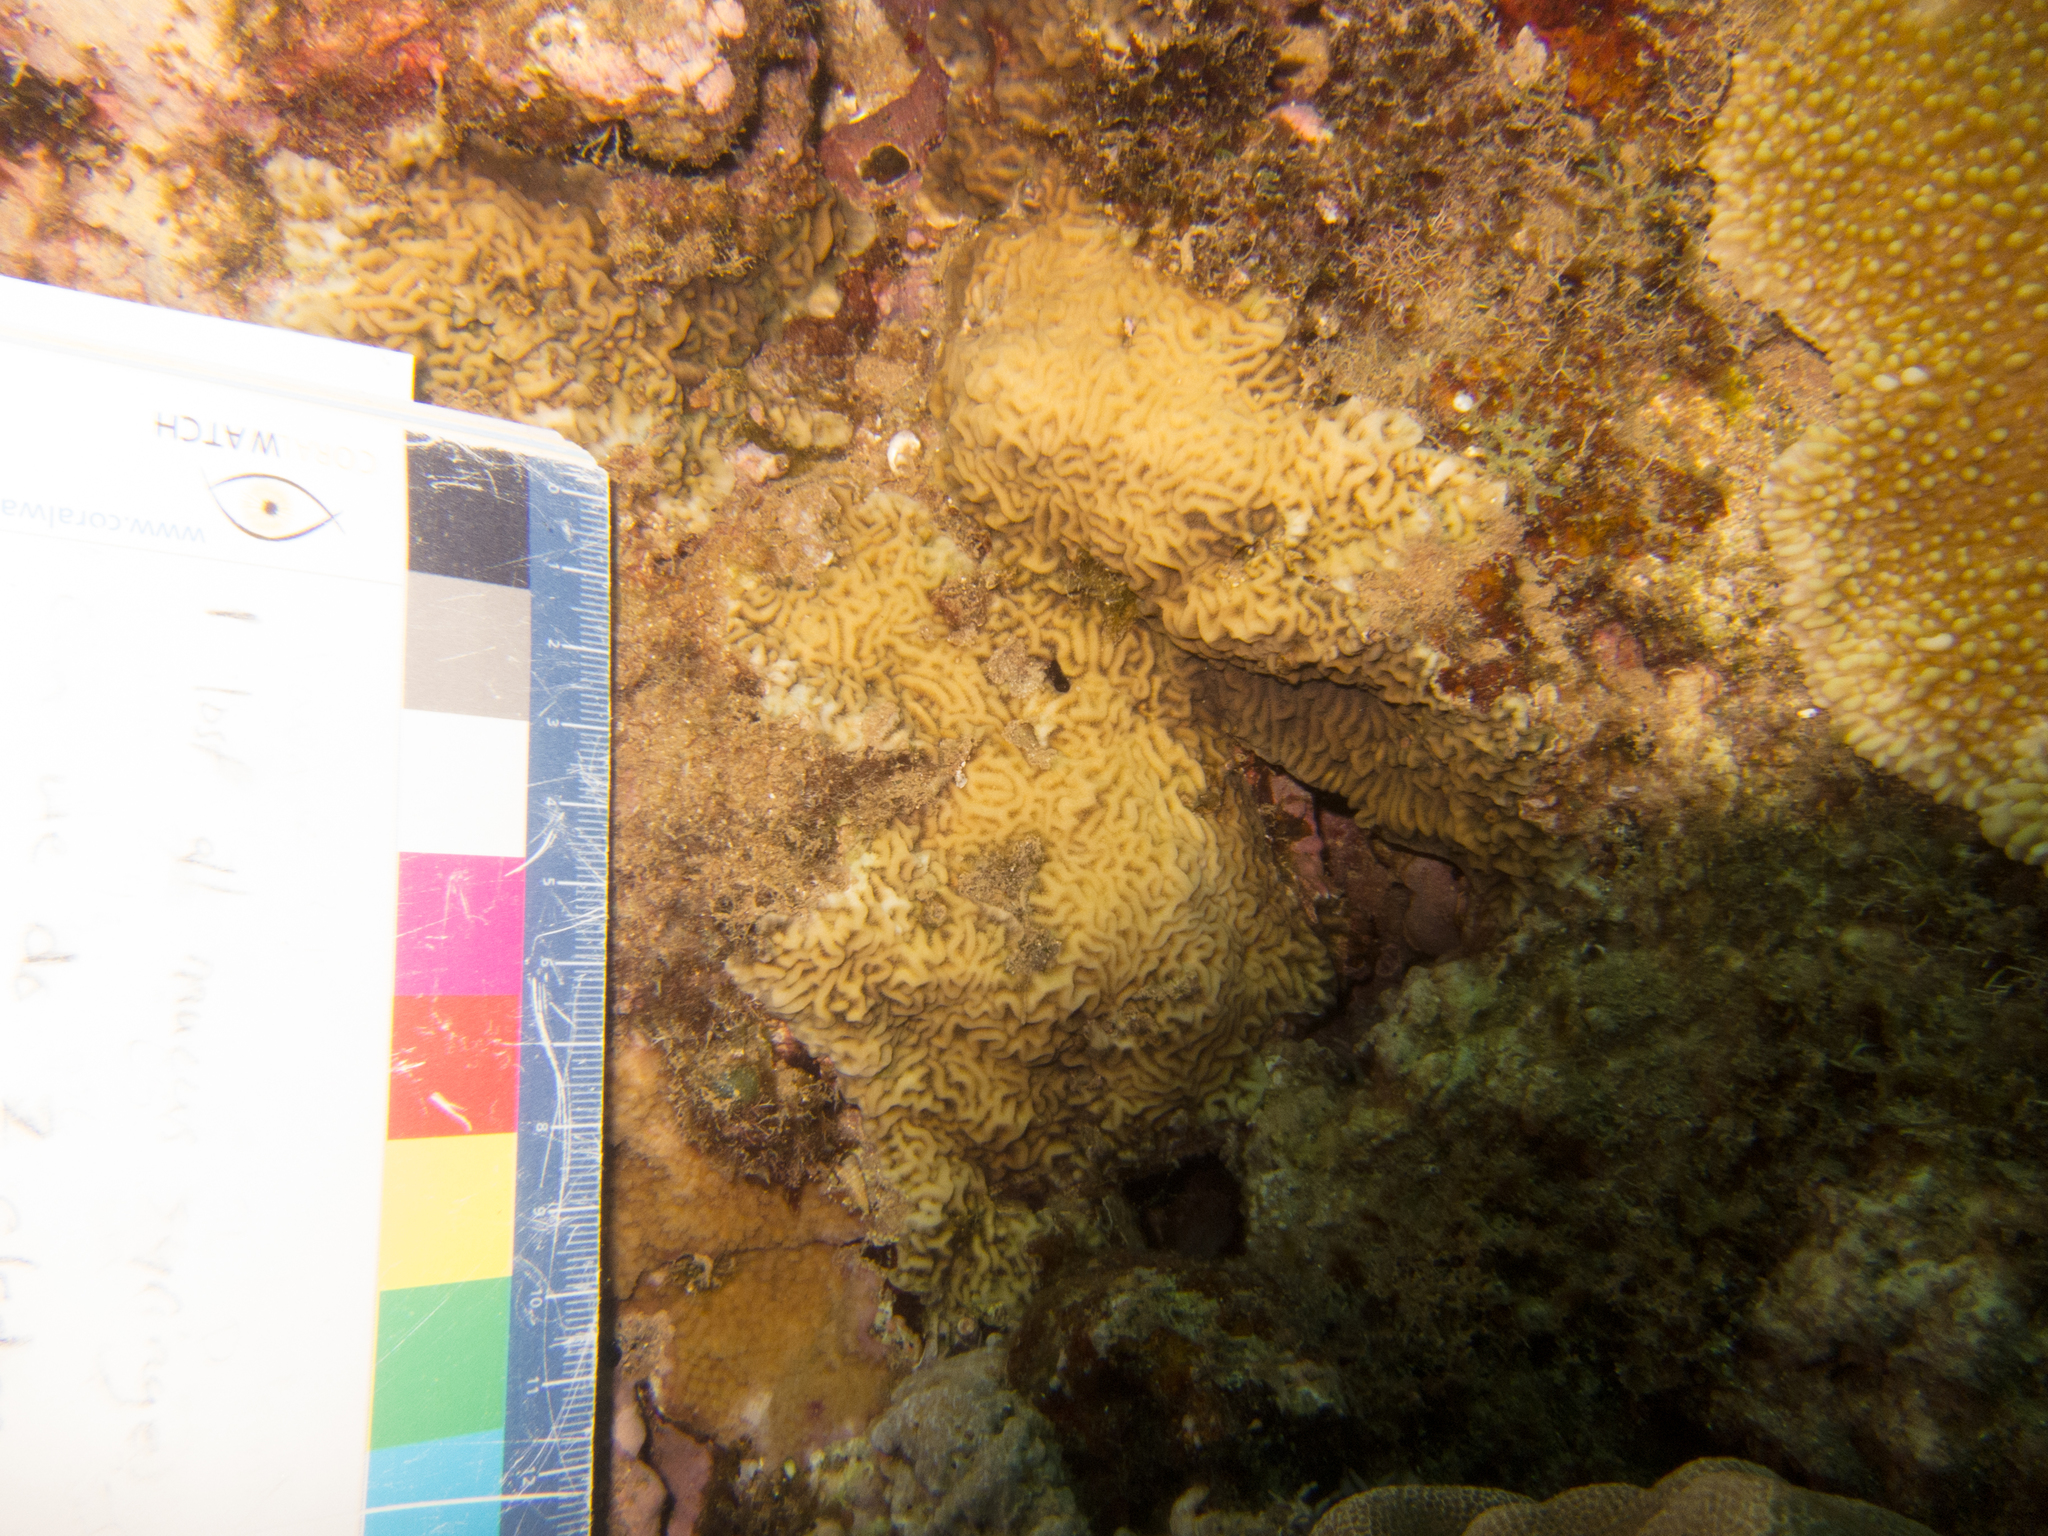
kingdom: Animalia
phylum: Cnidaria
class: Anthozoa
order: Scleractinia
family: Agariciidae
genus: Pavona
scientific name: Pavona varians
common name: Leaf coral
